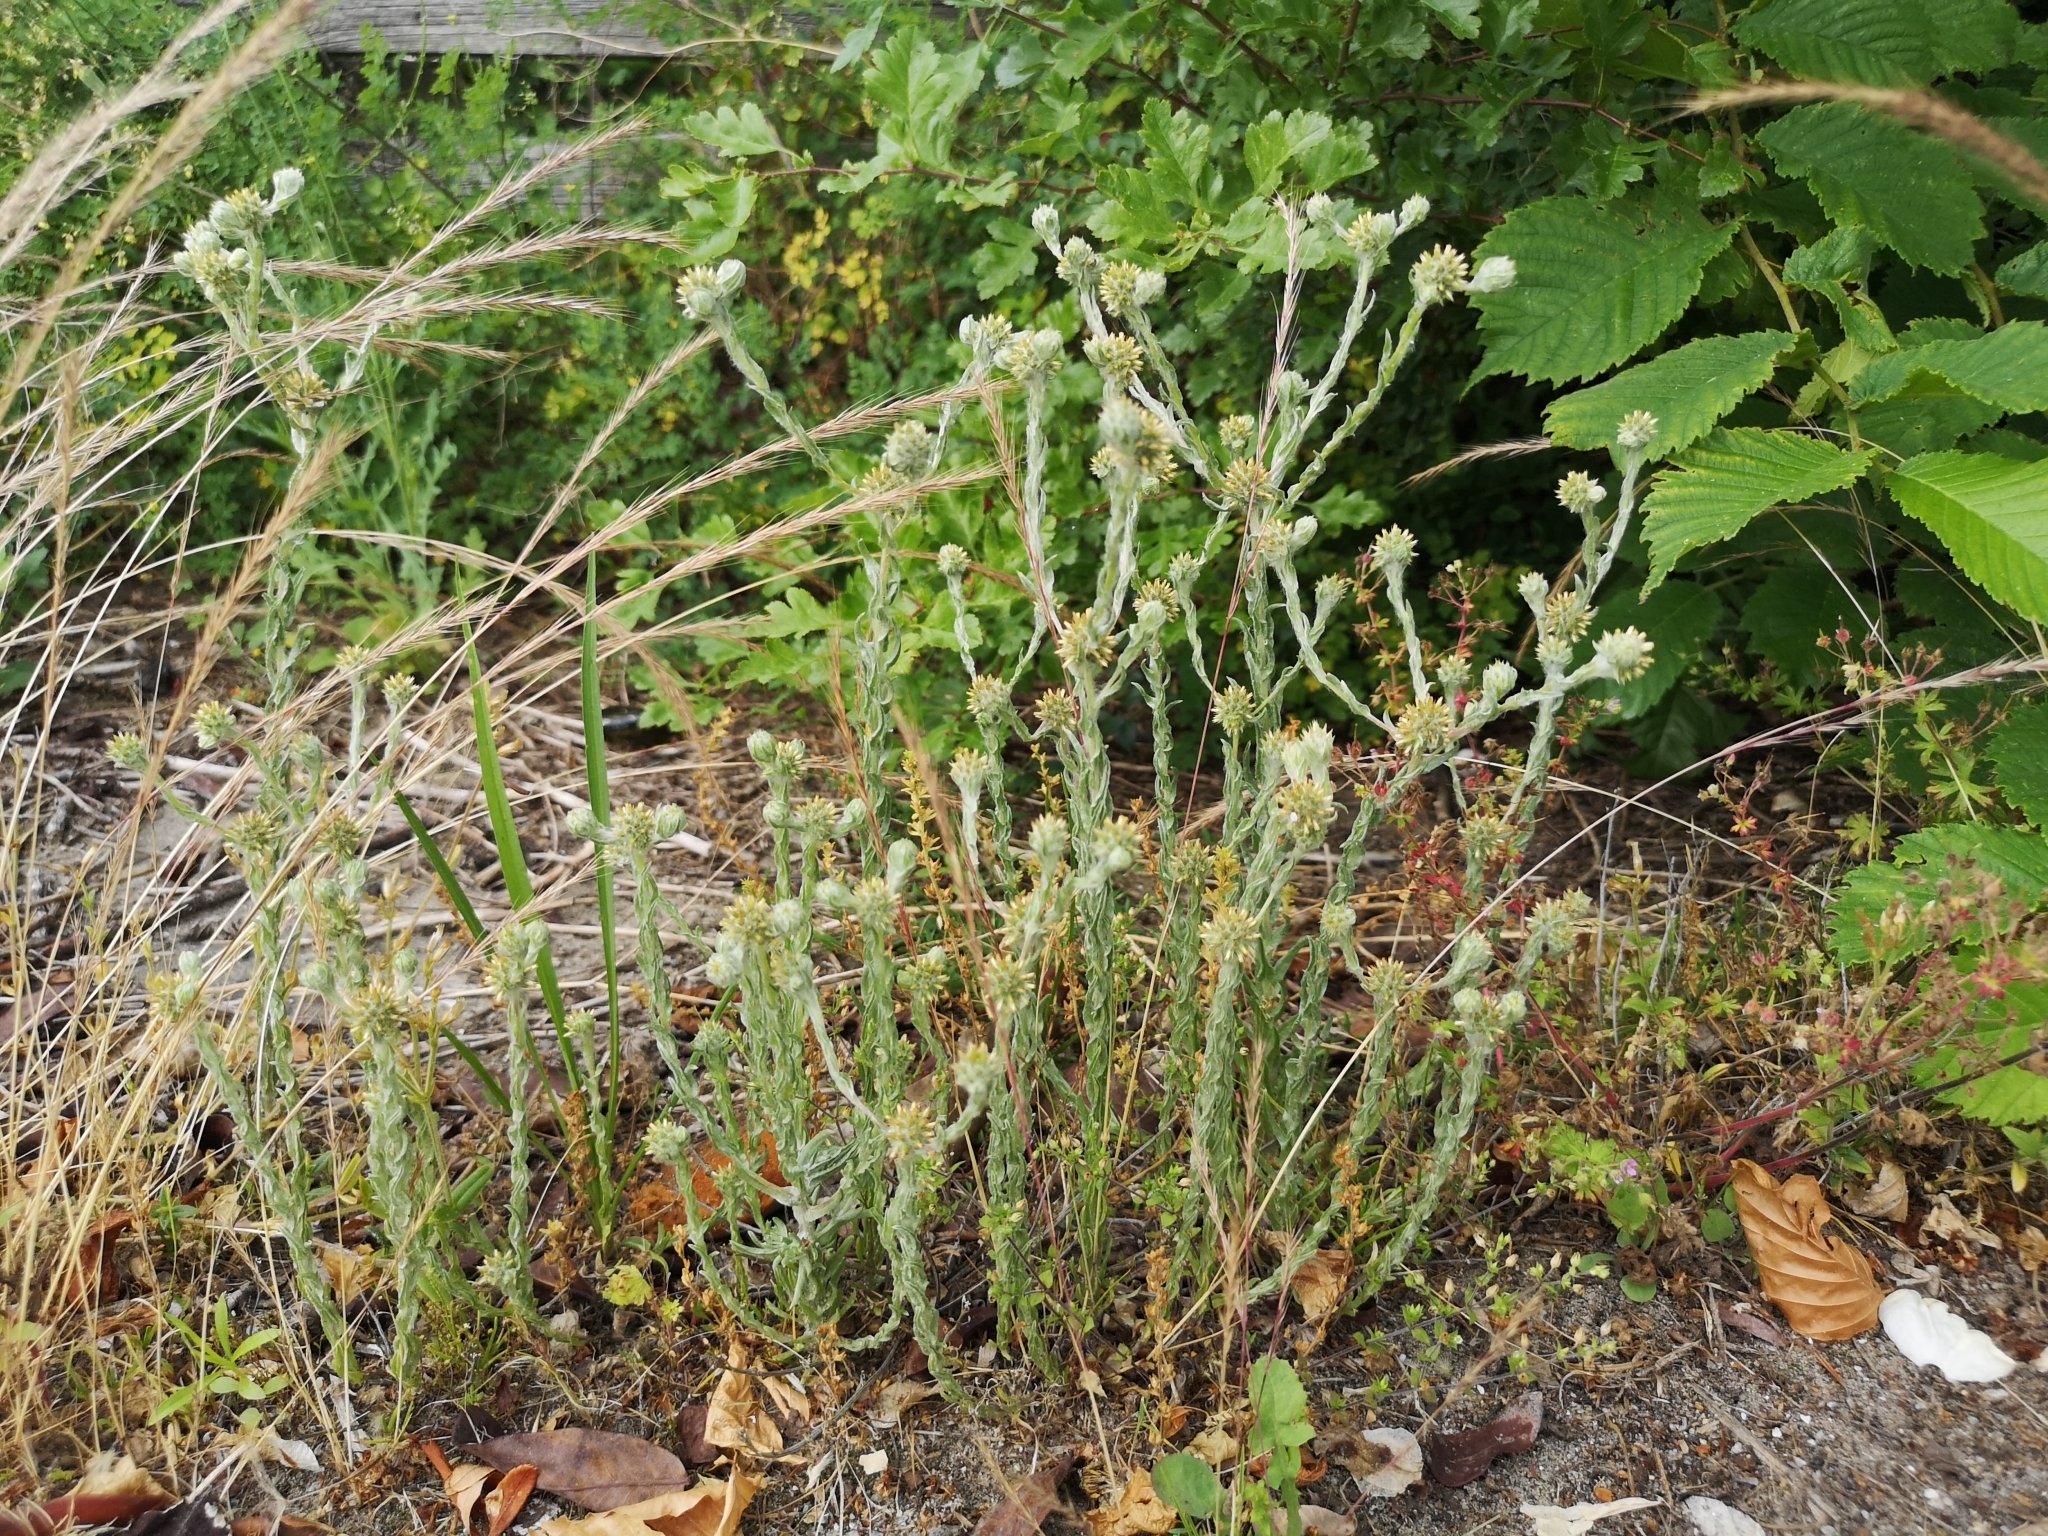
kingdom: Plantae
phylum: Tracheophyta
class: Magnoliopsida
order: Asterales
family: Asteraceae
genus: Filago
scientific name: Filago germanica
